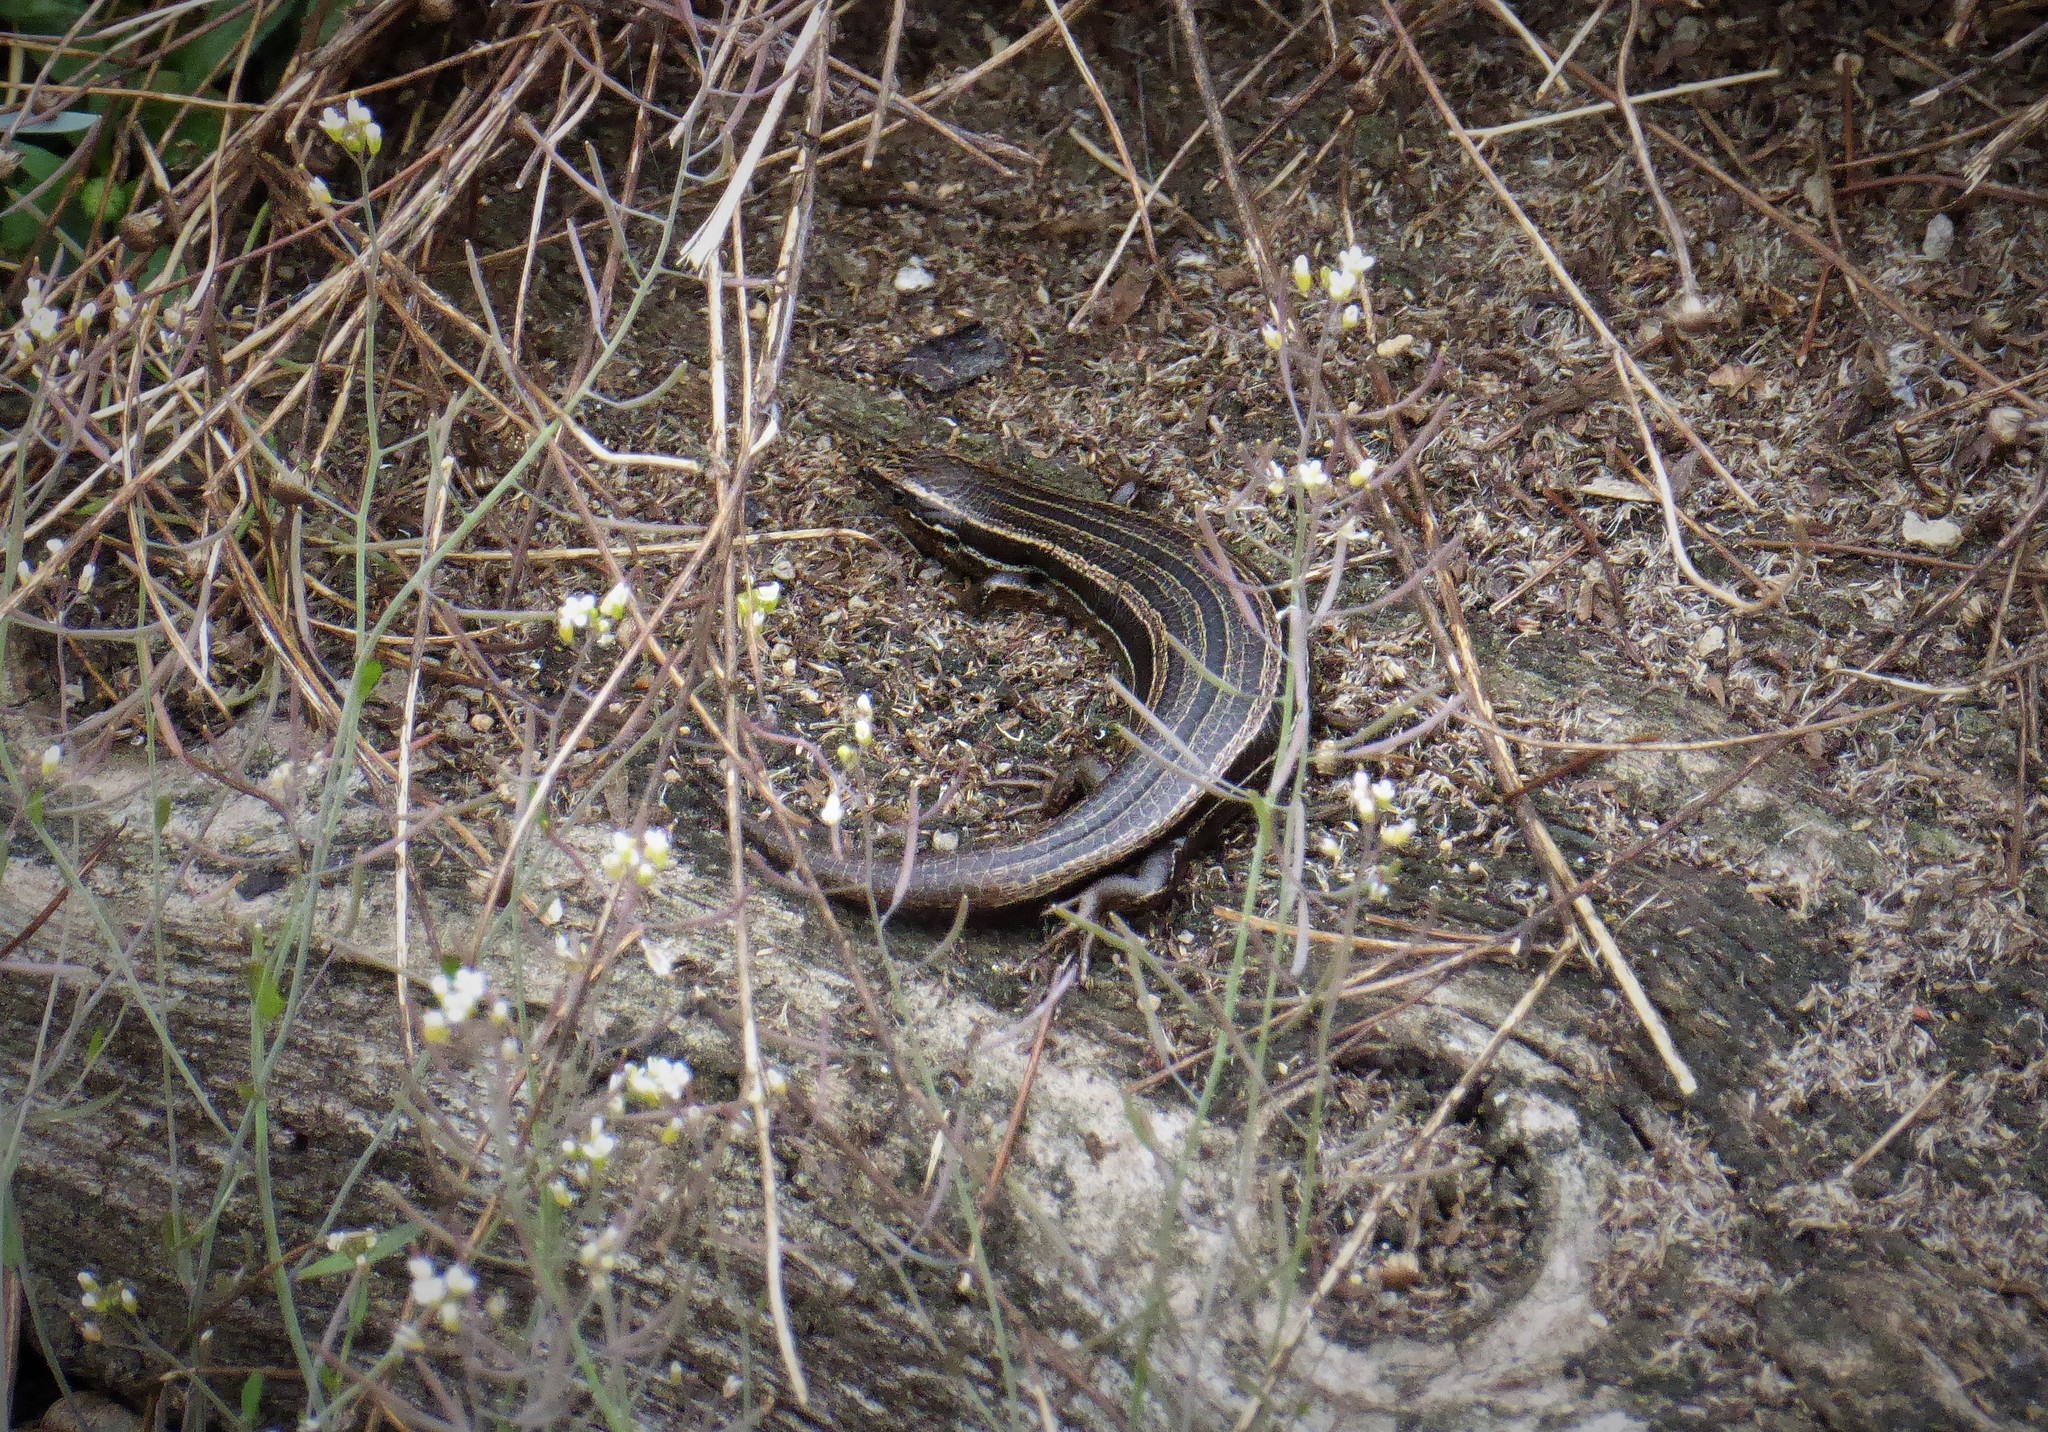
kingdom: Animalia
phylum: Chordata
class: Squamata
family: Scincidae
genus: Oligosoma
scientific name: Oligosoma polychroma
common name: Common new zealand skink
